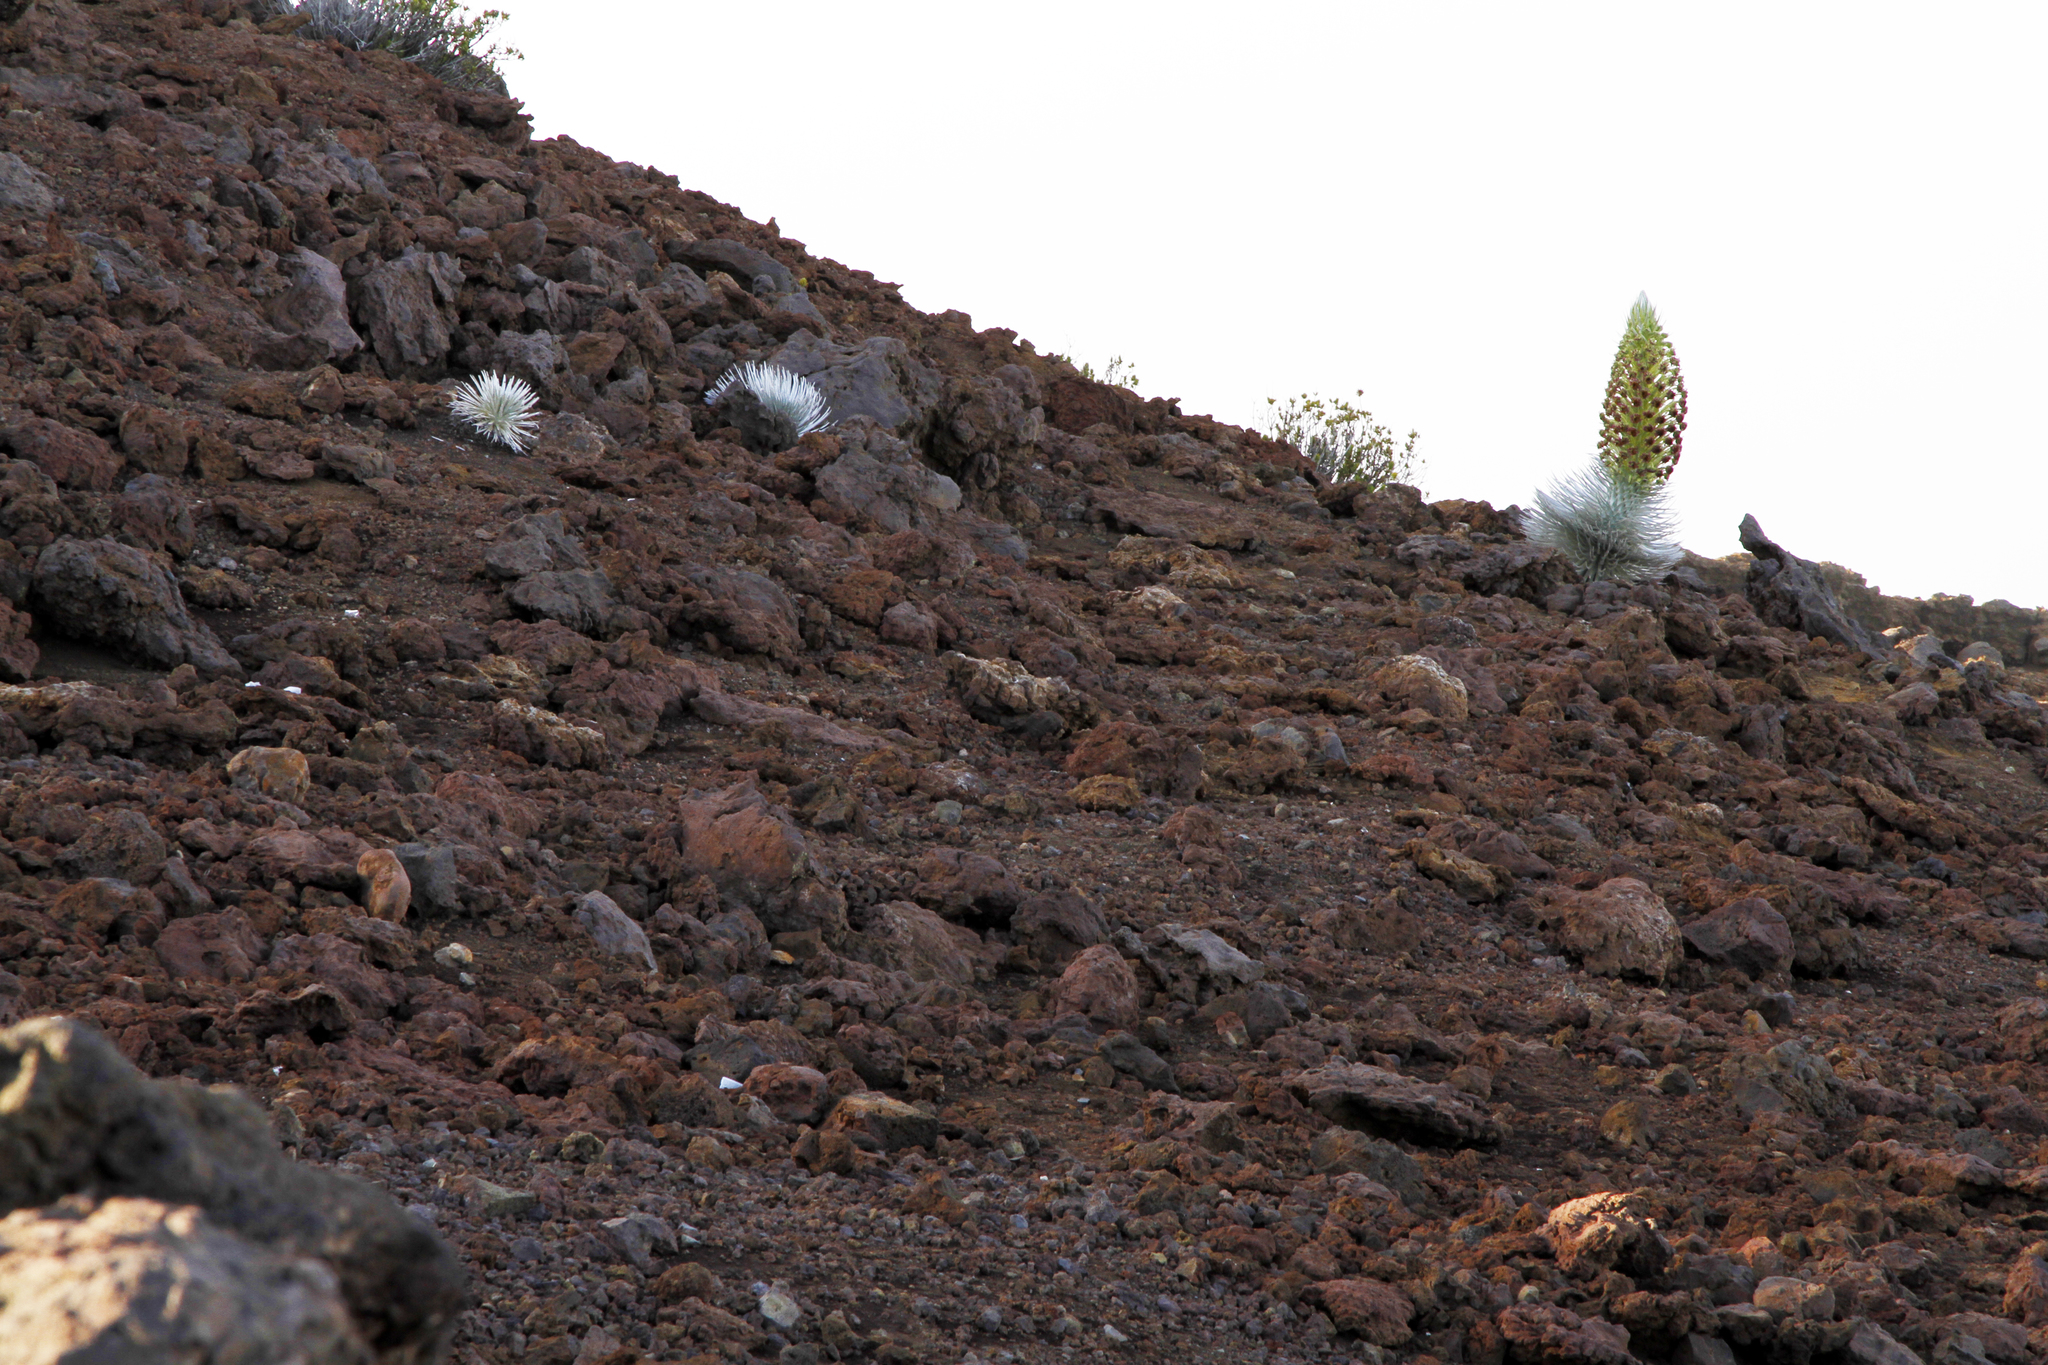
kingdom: Plantae
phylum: Tracheophyta
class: Magnoliopsida
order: Asterales
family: Asteraceae
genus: Argyroxiphium
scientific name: Argyroxiphium sandwicense
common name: Silversword
